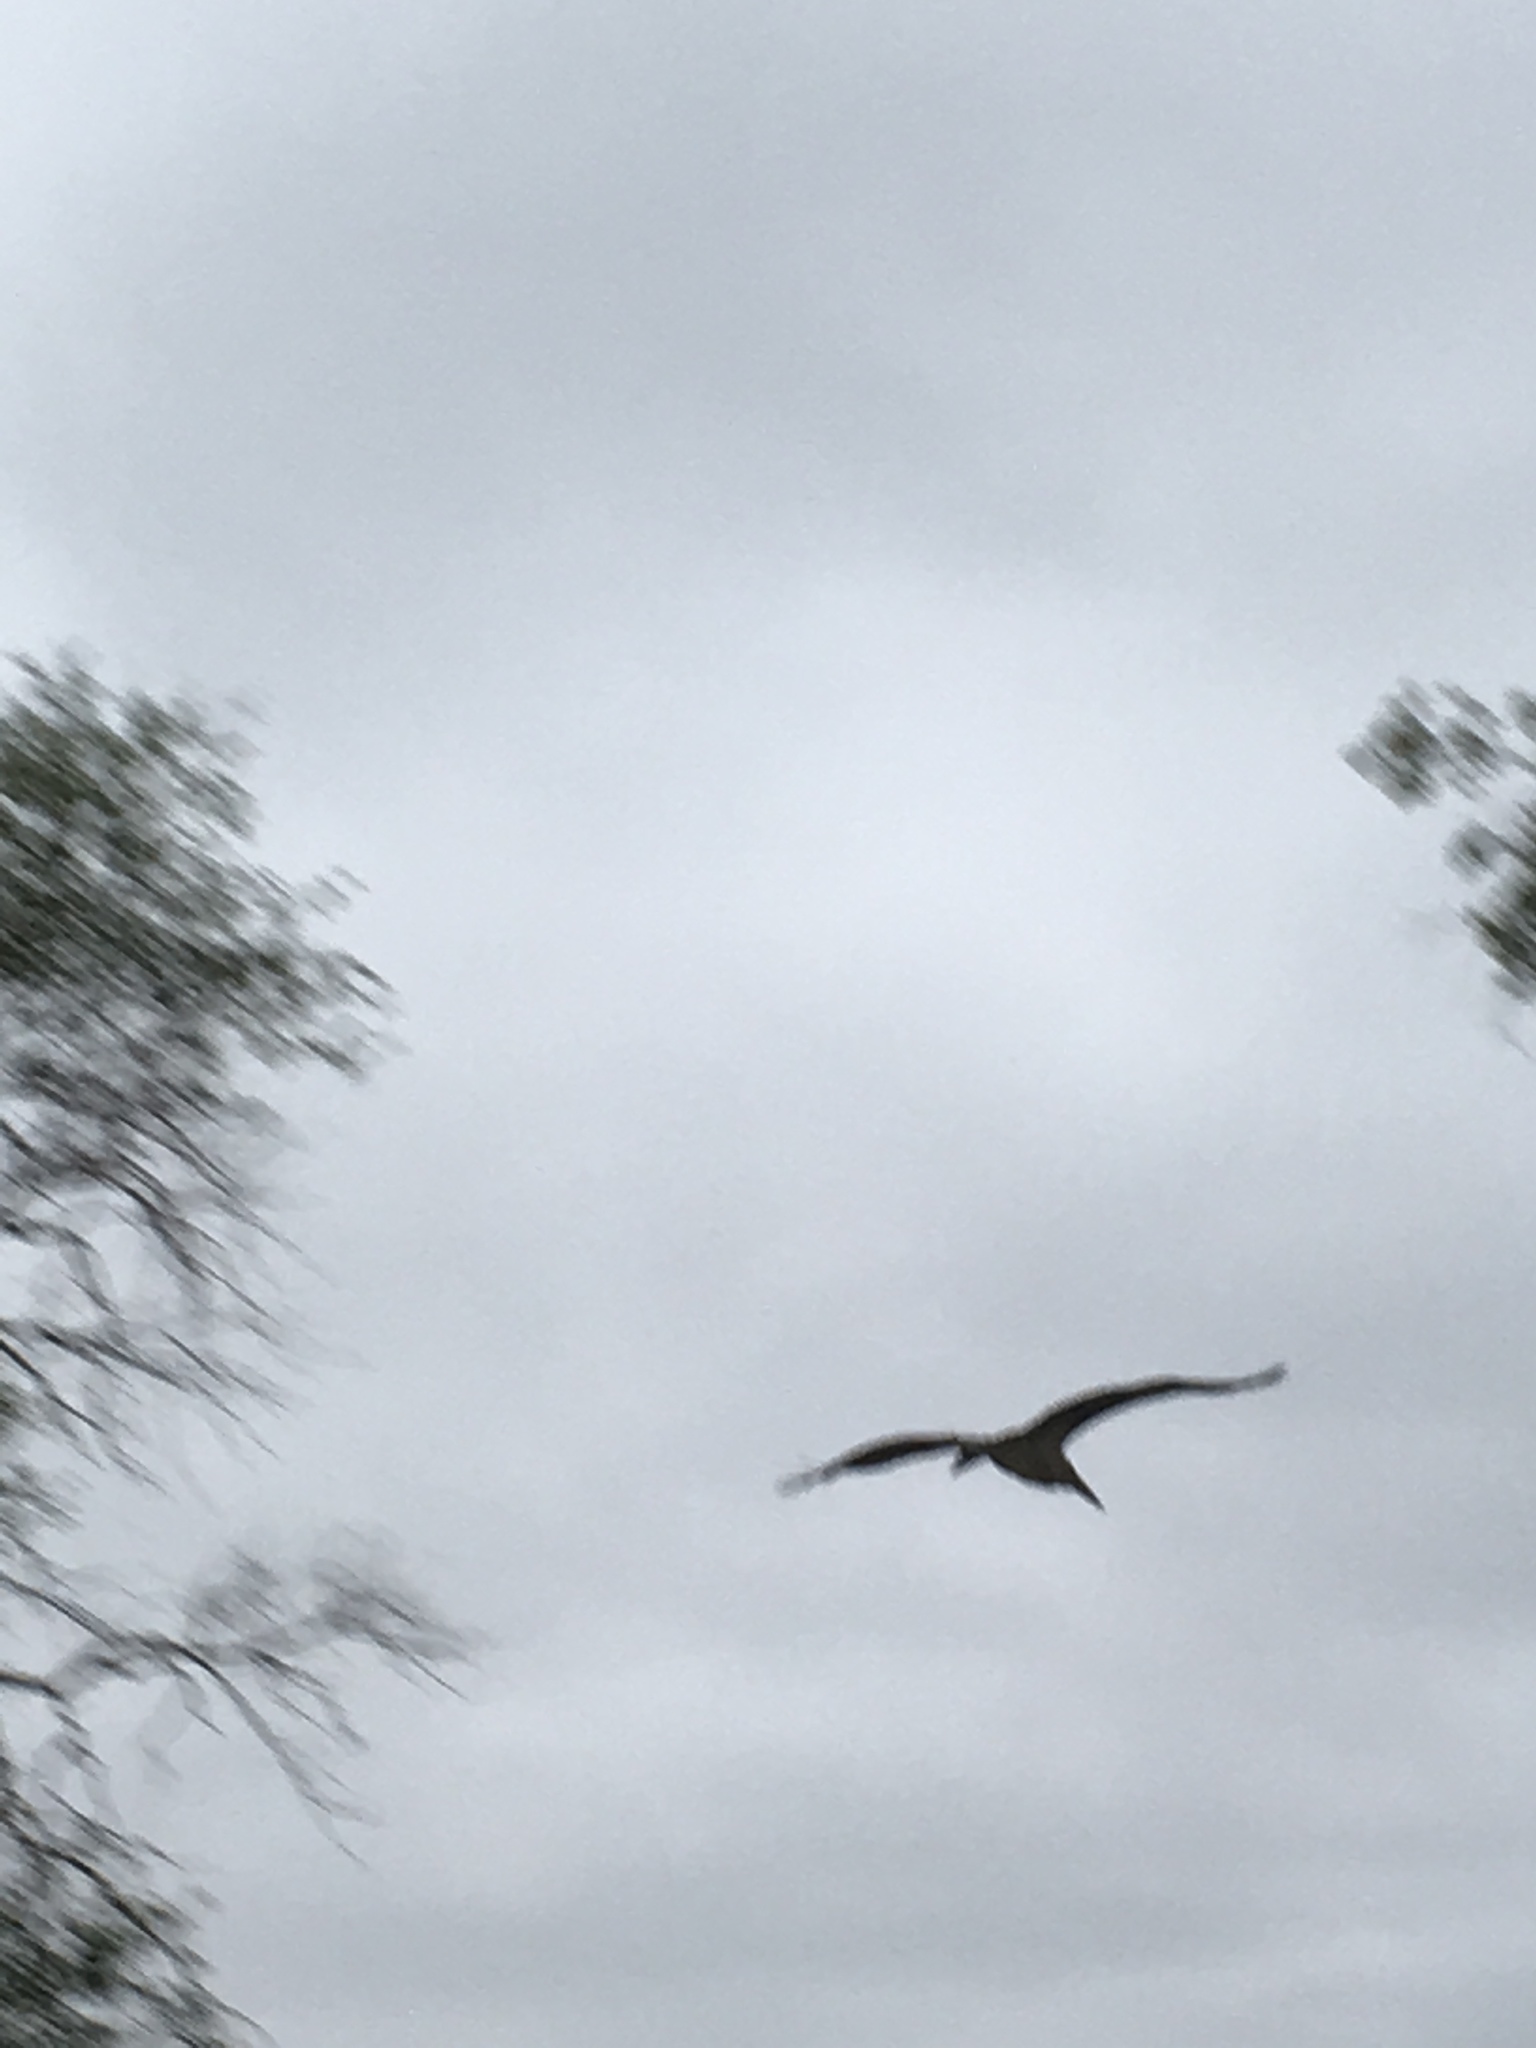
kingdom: Animalia
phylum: Chordata
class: Aves
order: Ciconiiformes
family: Ciconiidae
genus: Leptoptilos
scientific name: Leptoptilos crumenifer
